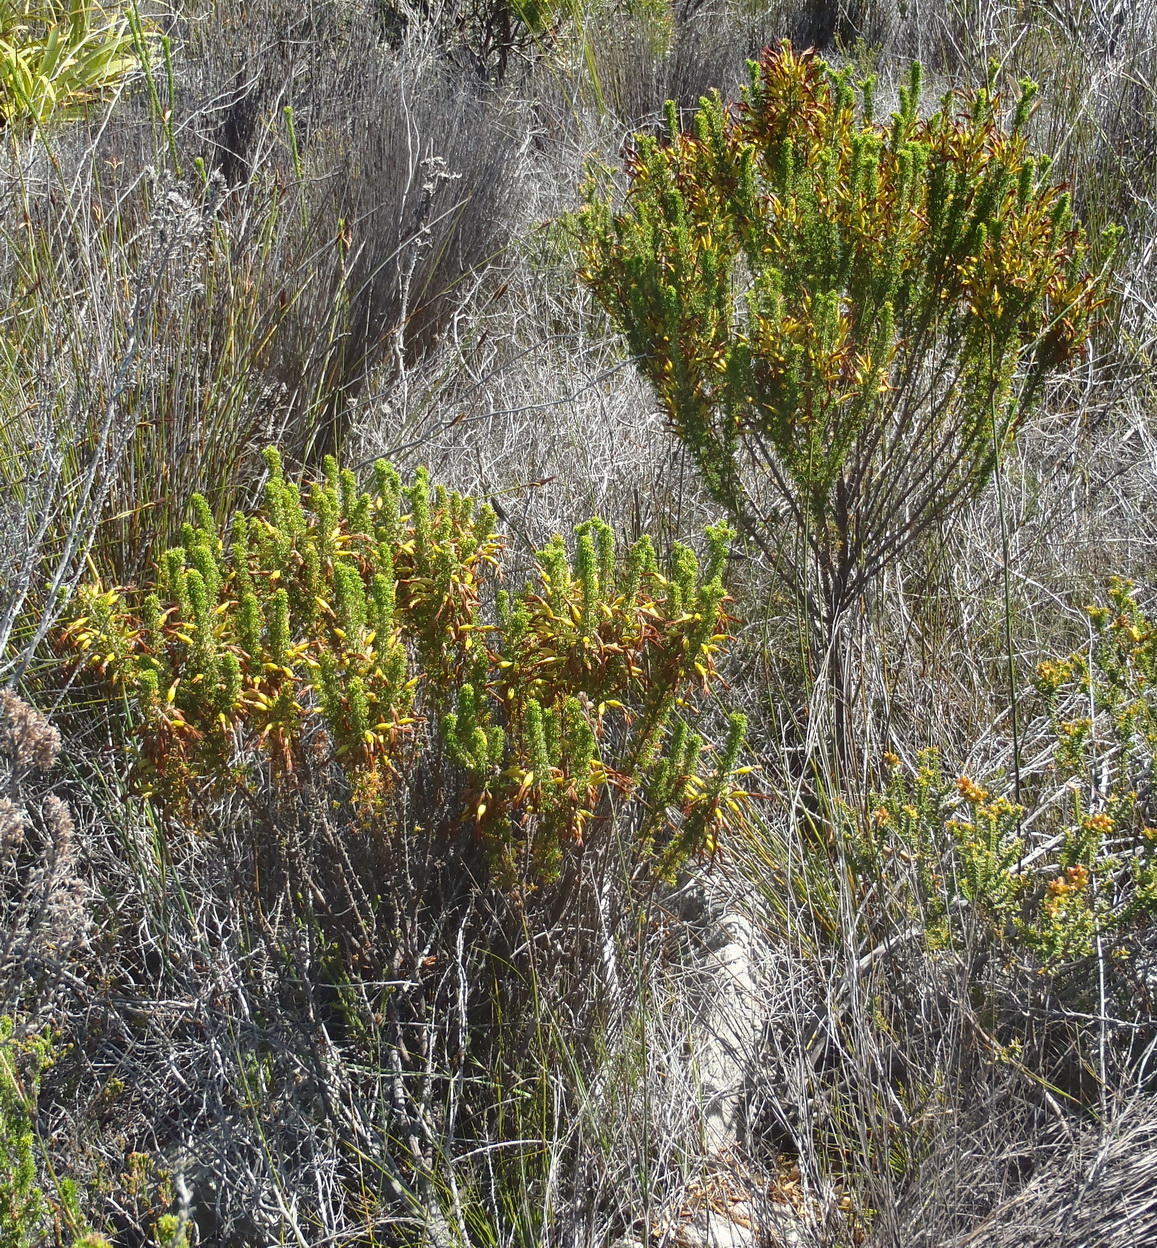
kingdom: Plantae
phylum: Tracheophyta
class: Magnoliopsida
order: Ericales
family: Ericaceae
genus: Erica
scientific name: Erica coccinea
